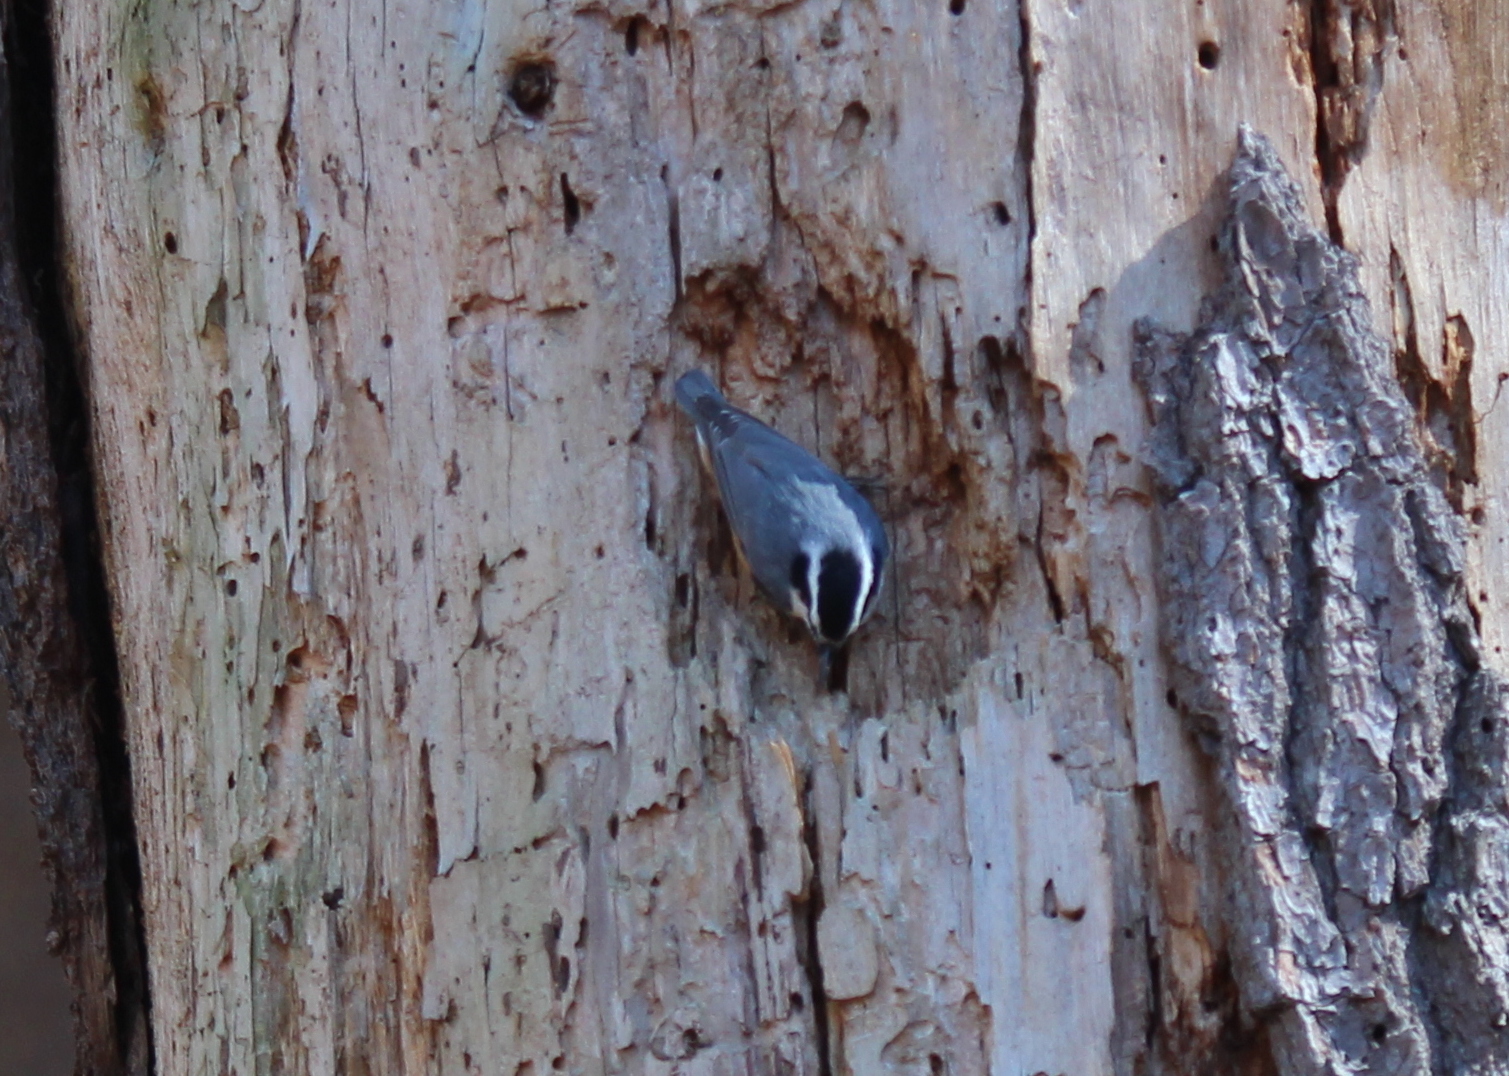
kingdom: Animalia
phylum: Chordata
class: Aves
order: Passeriformes
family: Sittidae
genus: Sitta
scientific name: Sitta canadensis
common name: Red-breasted nuthatch
